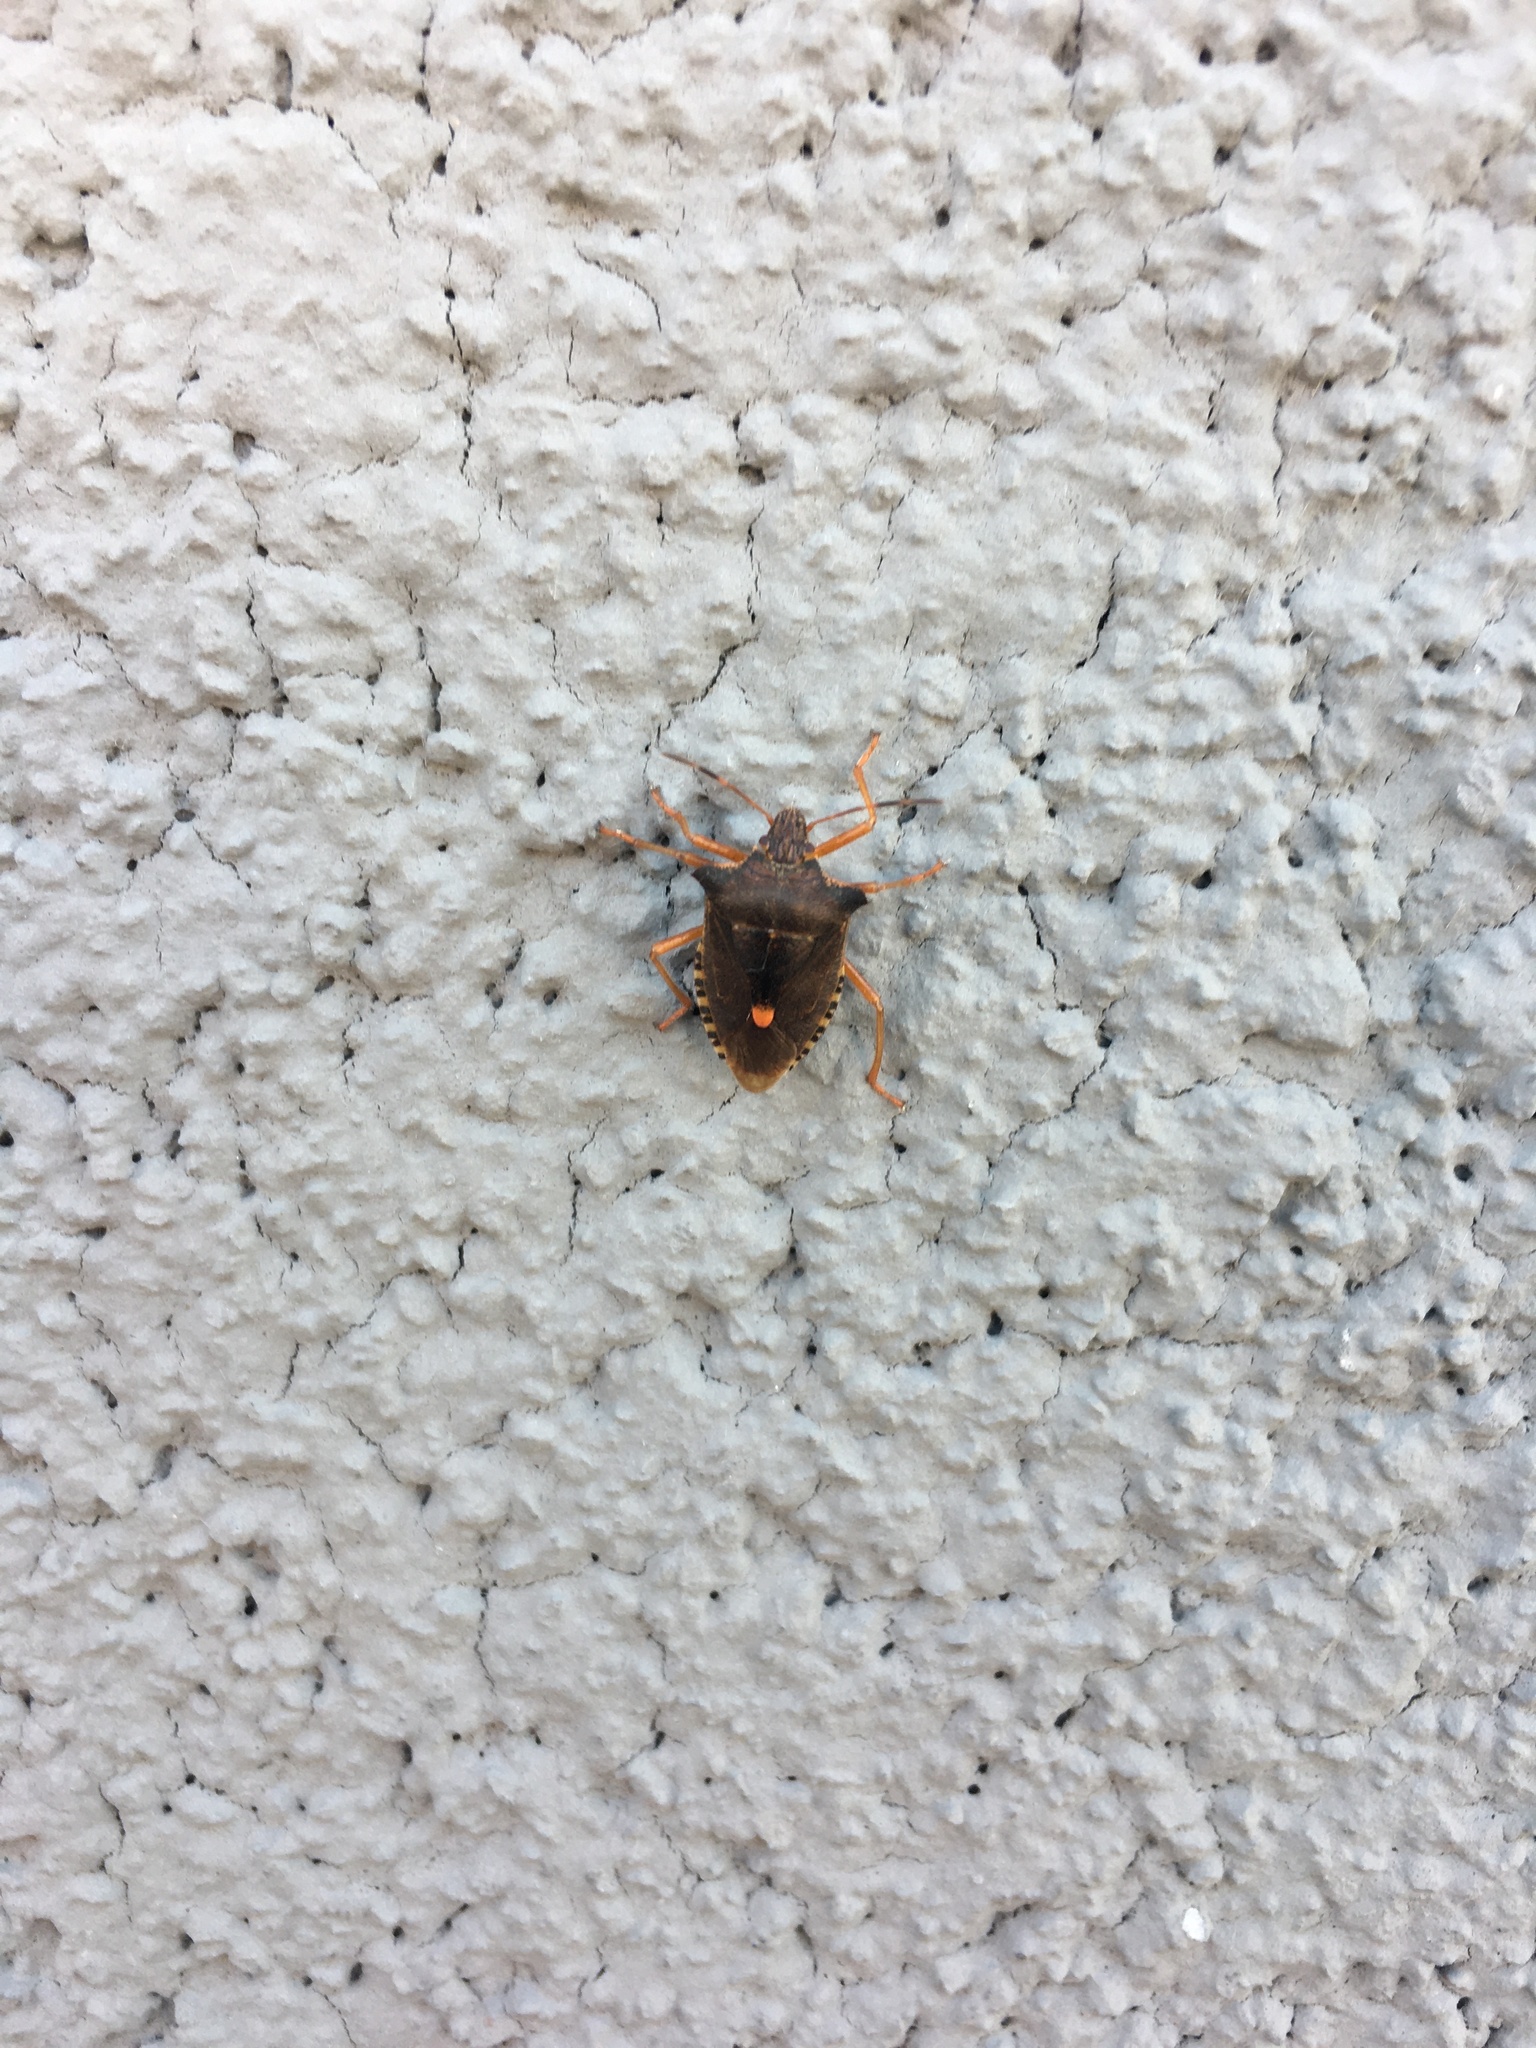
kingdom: Animalia
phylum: Arthropoda
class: Insecta
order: Hemiptera
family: Pentatomidae
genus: Pentatoma
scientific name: Pentatoma rufipes
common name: Forest bug
